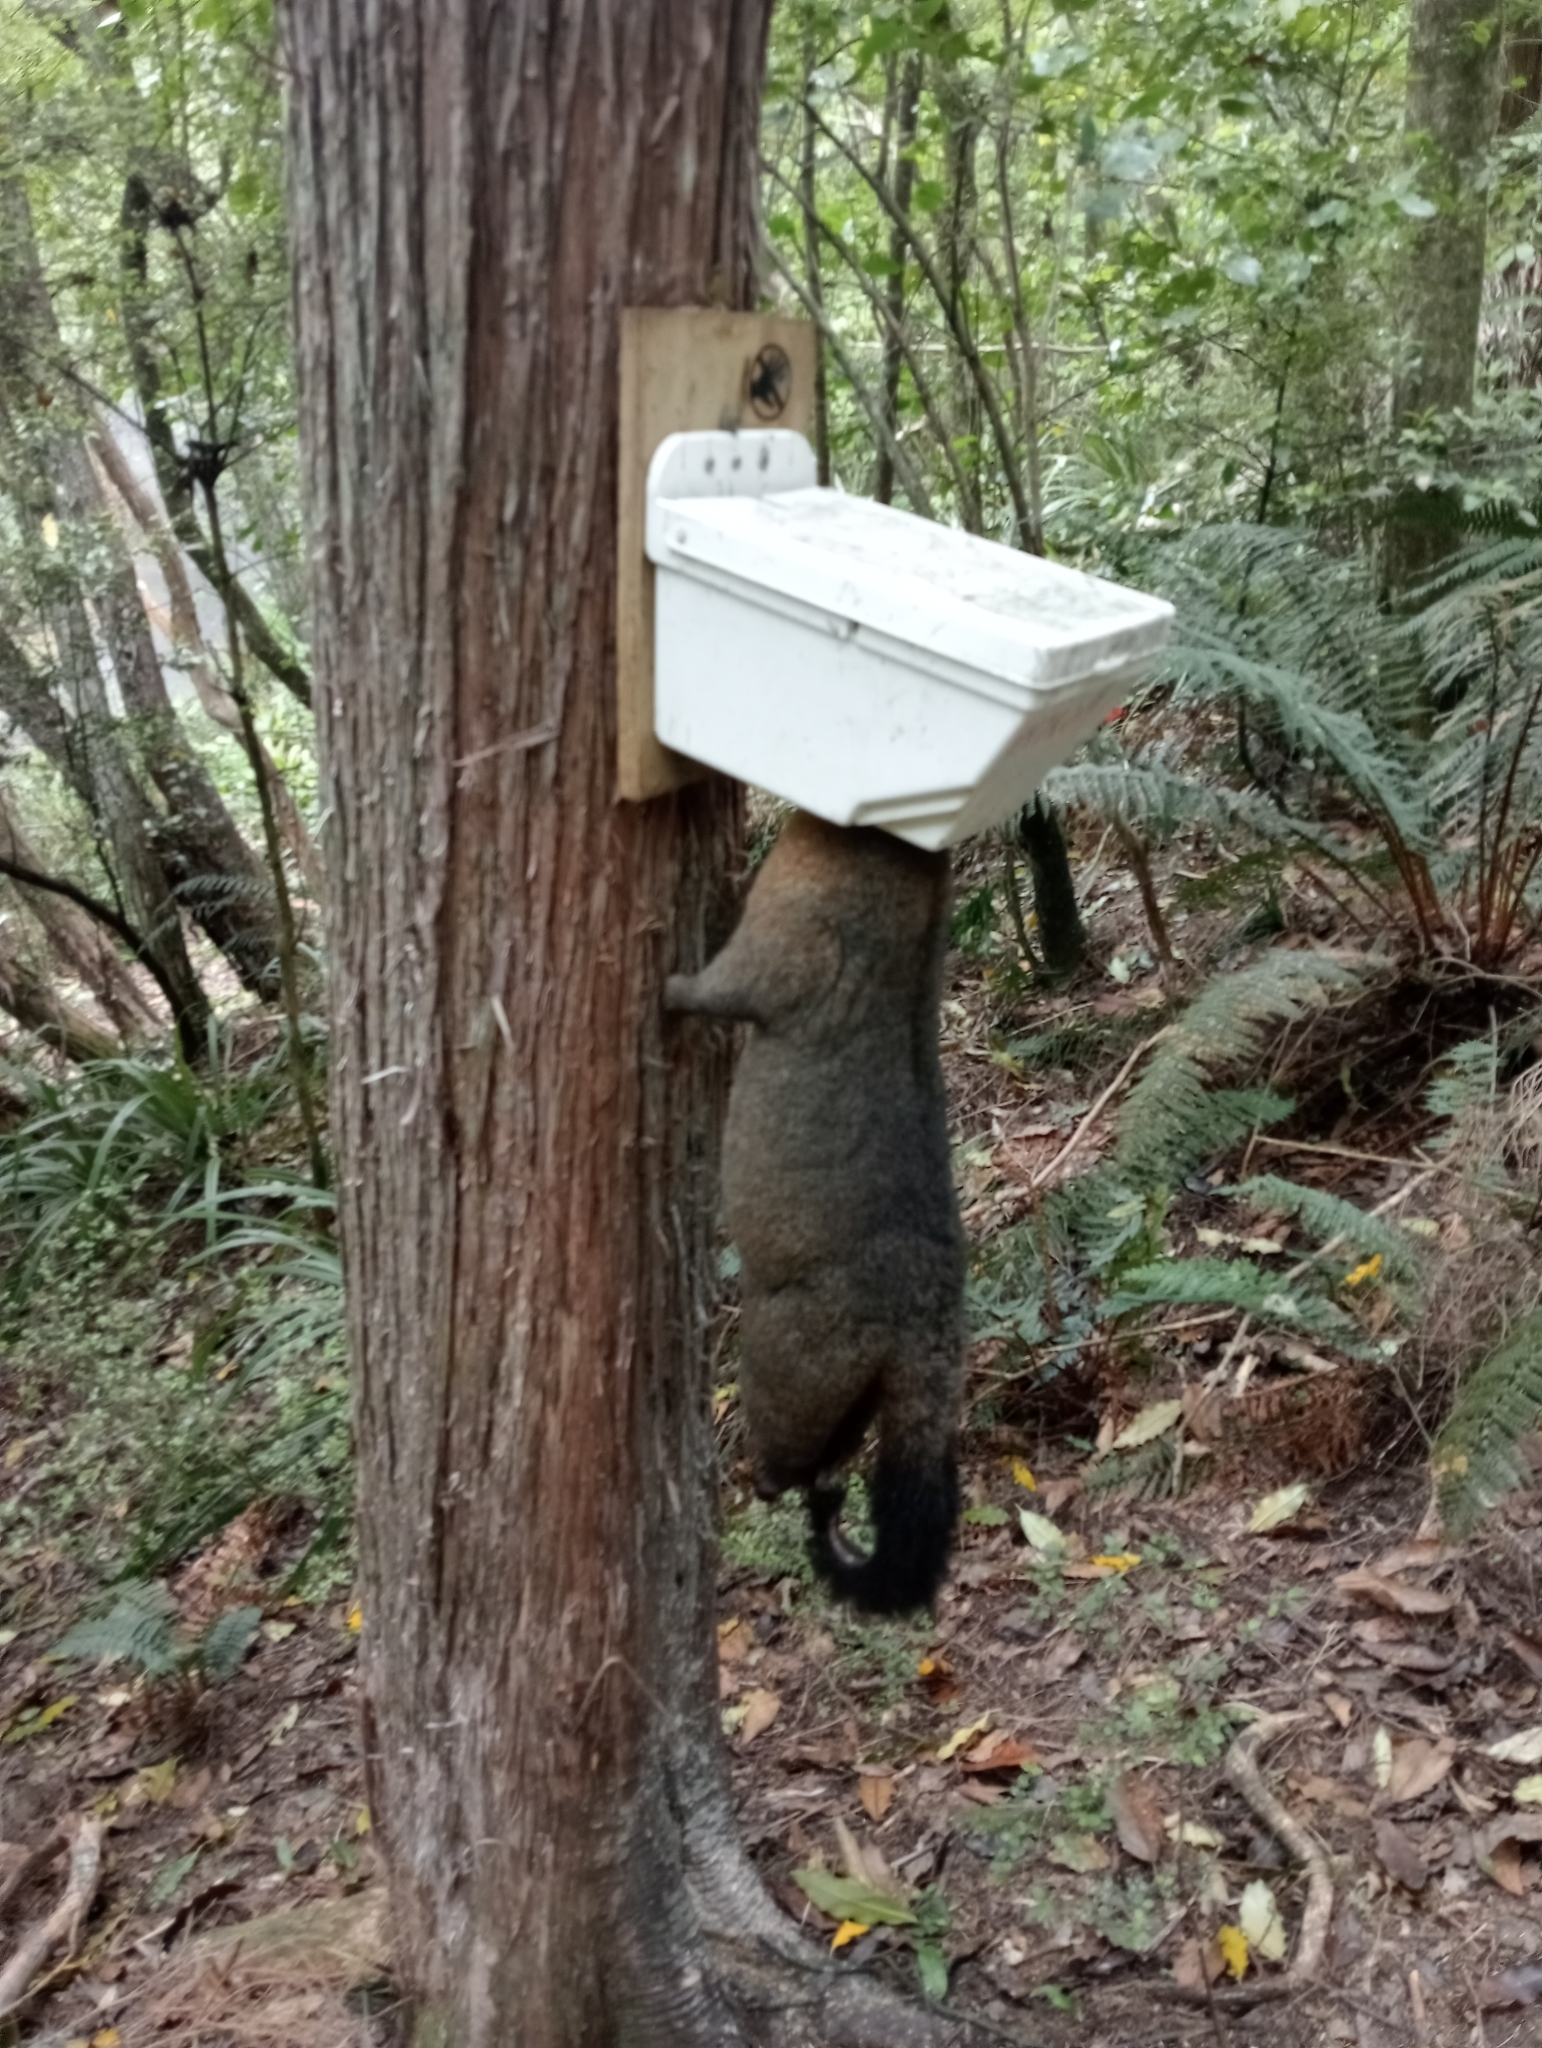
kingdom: Animalia
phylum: Chordata
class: Mammalia
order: Diprotodontia
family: Phalangeridae
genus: Trichosurus
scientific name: Trichosurus vulpecula
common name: Common brushtail
